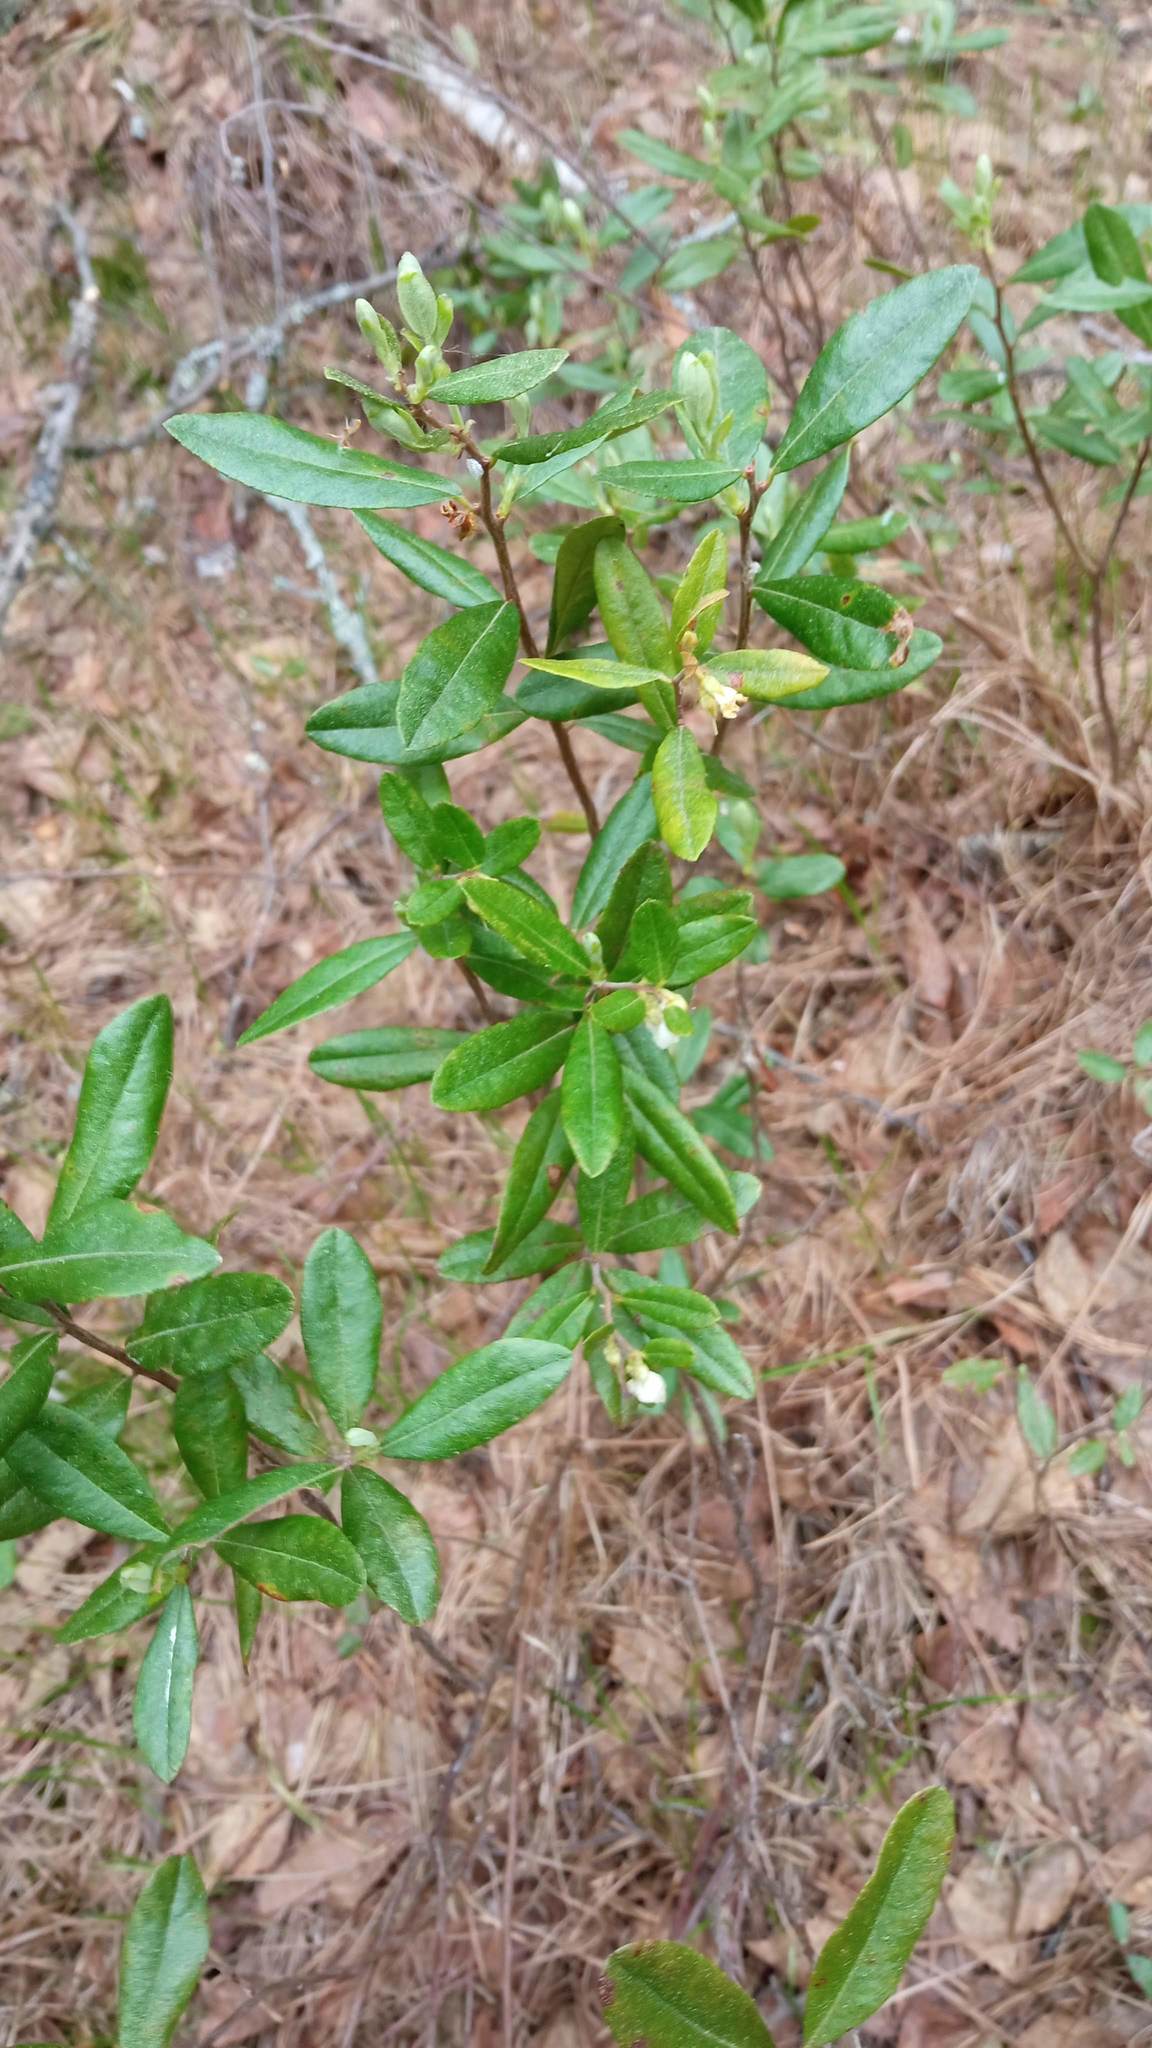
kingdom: Plantae
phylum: Tracheophyta
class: Magnoliopsida
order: Ericales
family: Ericaceae
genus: Chamaedaphne
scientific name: Chamaedaphne calyculata
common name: Leatherleaf
